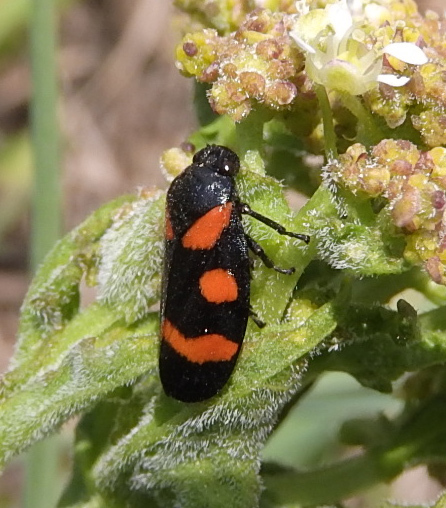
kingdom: Animalia
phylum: Arthropoda
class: Insecta
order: Hemiptera
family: Cercopidae
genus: Cercopis
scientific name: Cercopis sanguinolenta
